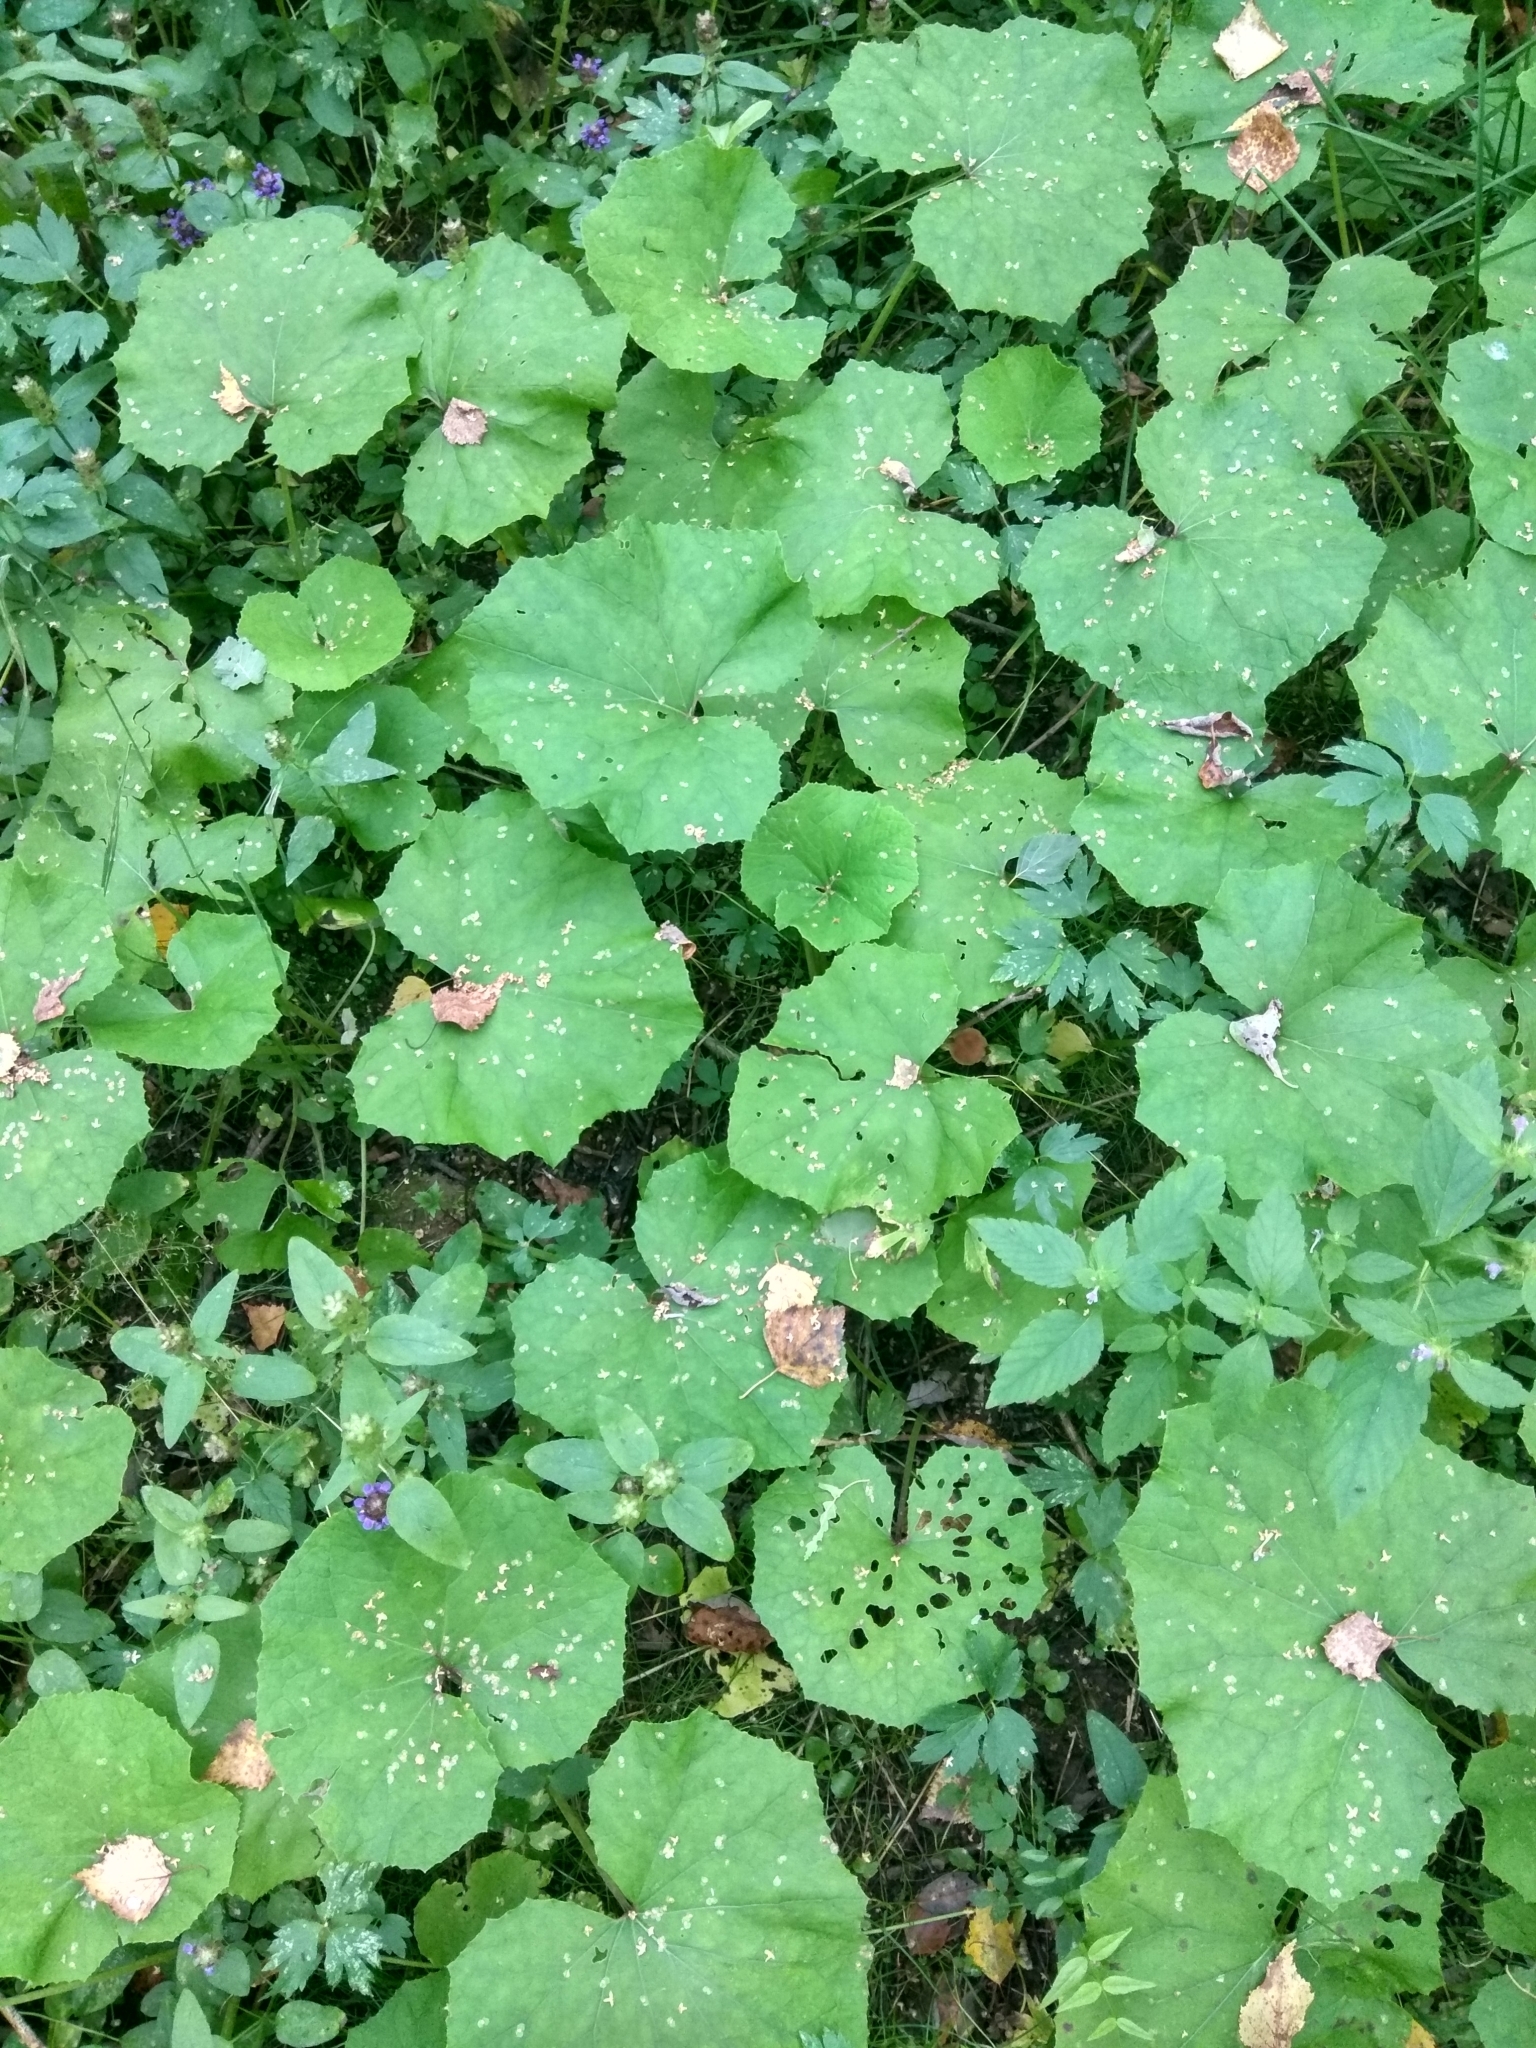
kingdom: Plantae
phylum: Tracheophyta
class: Magnoliopsida
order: Asterales
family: Asteraceae
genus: Tussilago
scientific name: Tussilago farfara
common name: Coltsfoot
